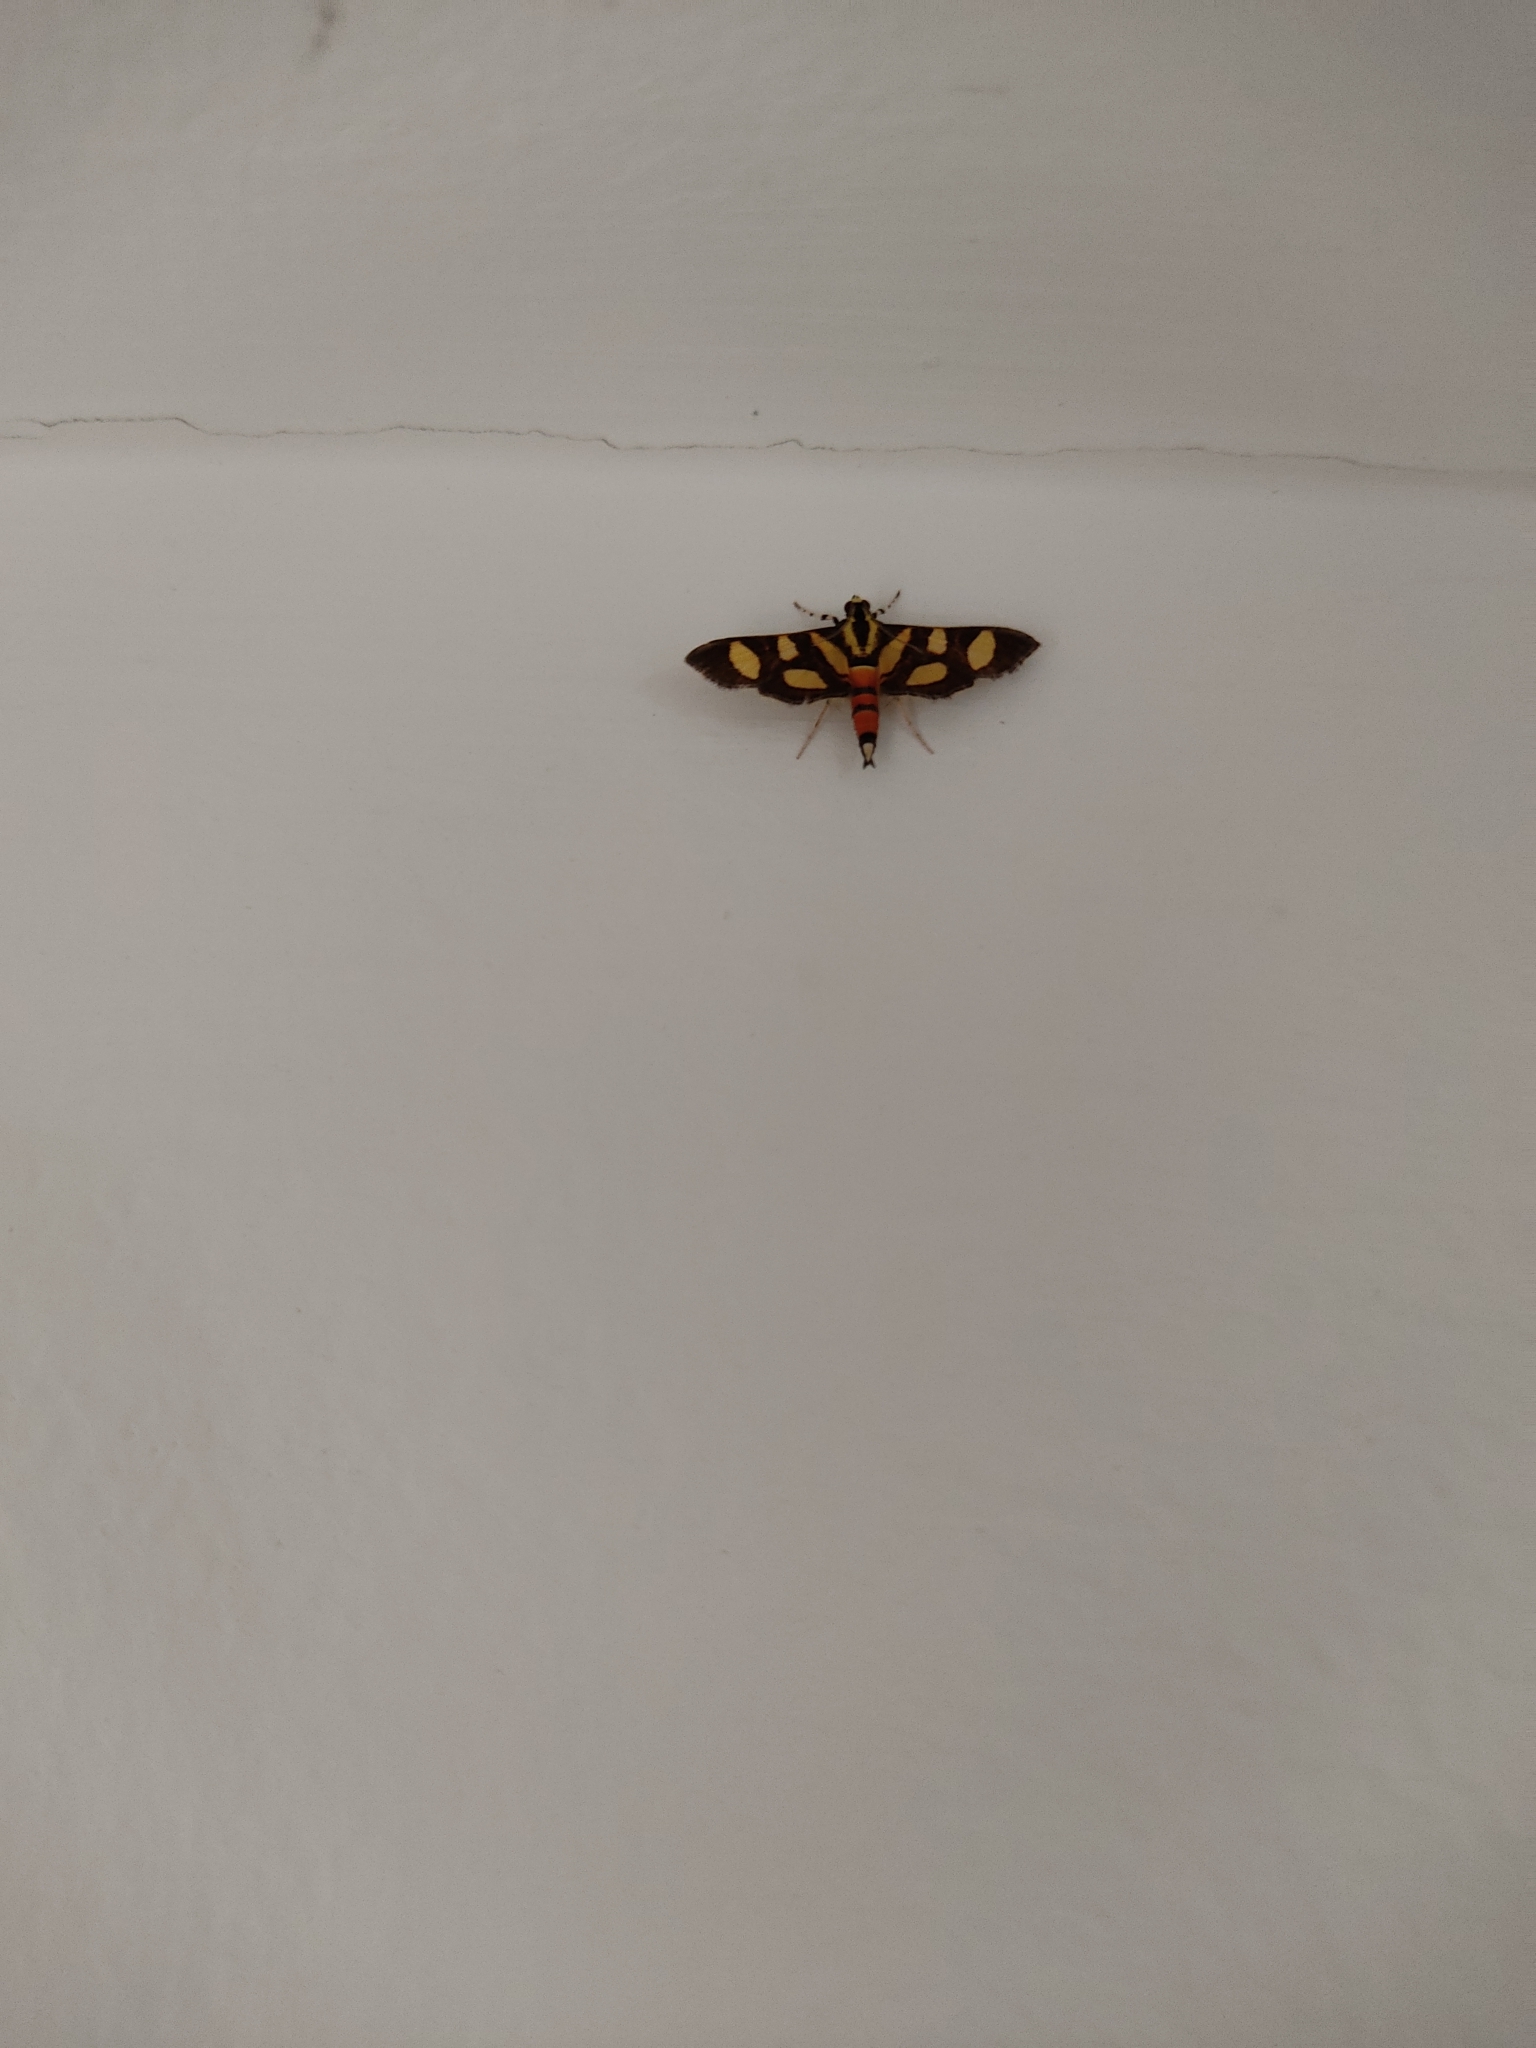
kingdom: Animalia
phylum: Arthropoda
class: Insecta
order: Lepidoptera
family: Crambidae
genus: Syngamia
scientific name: Syngamia florella
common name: Orange-spotted flower moth
